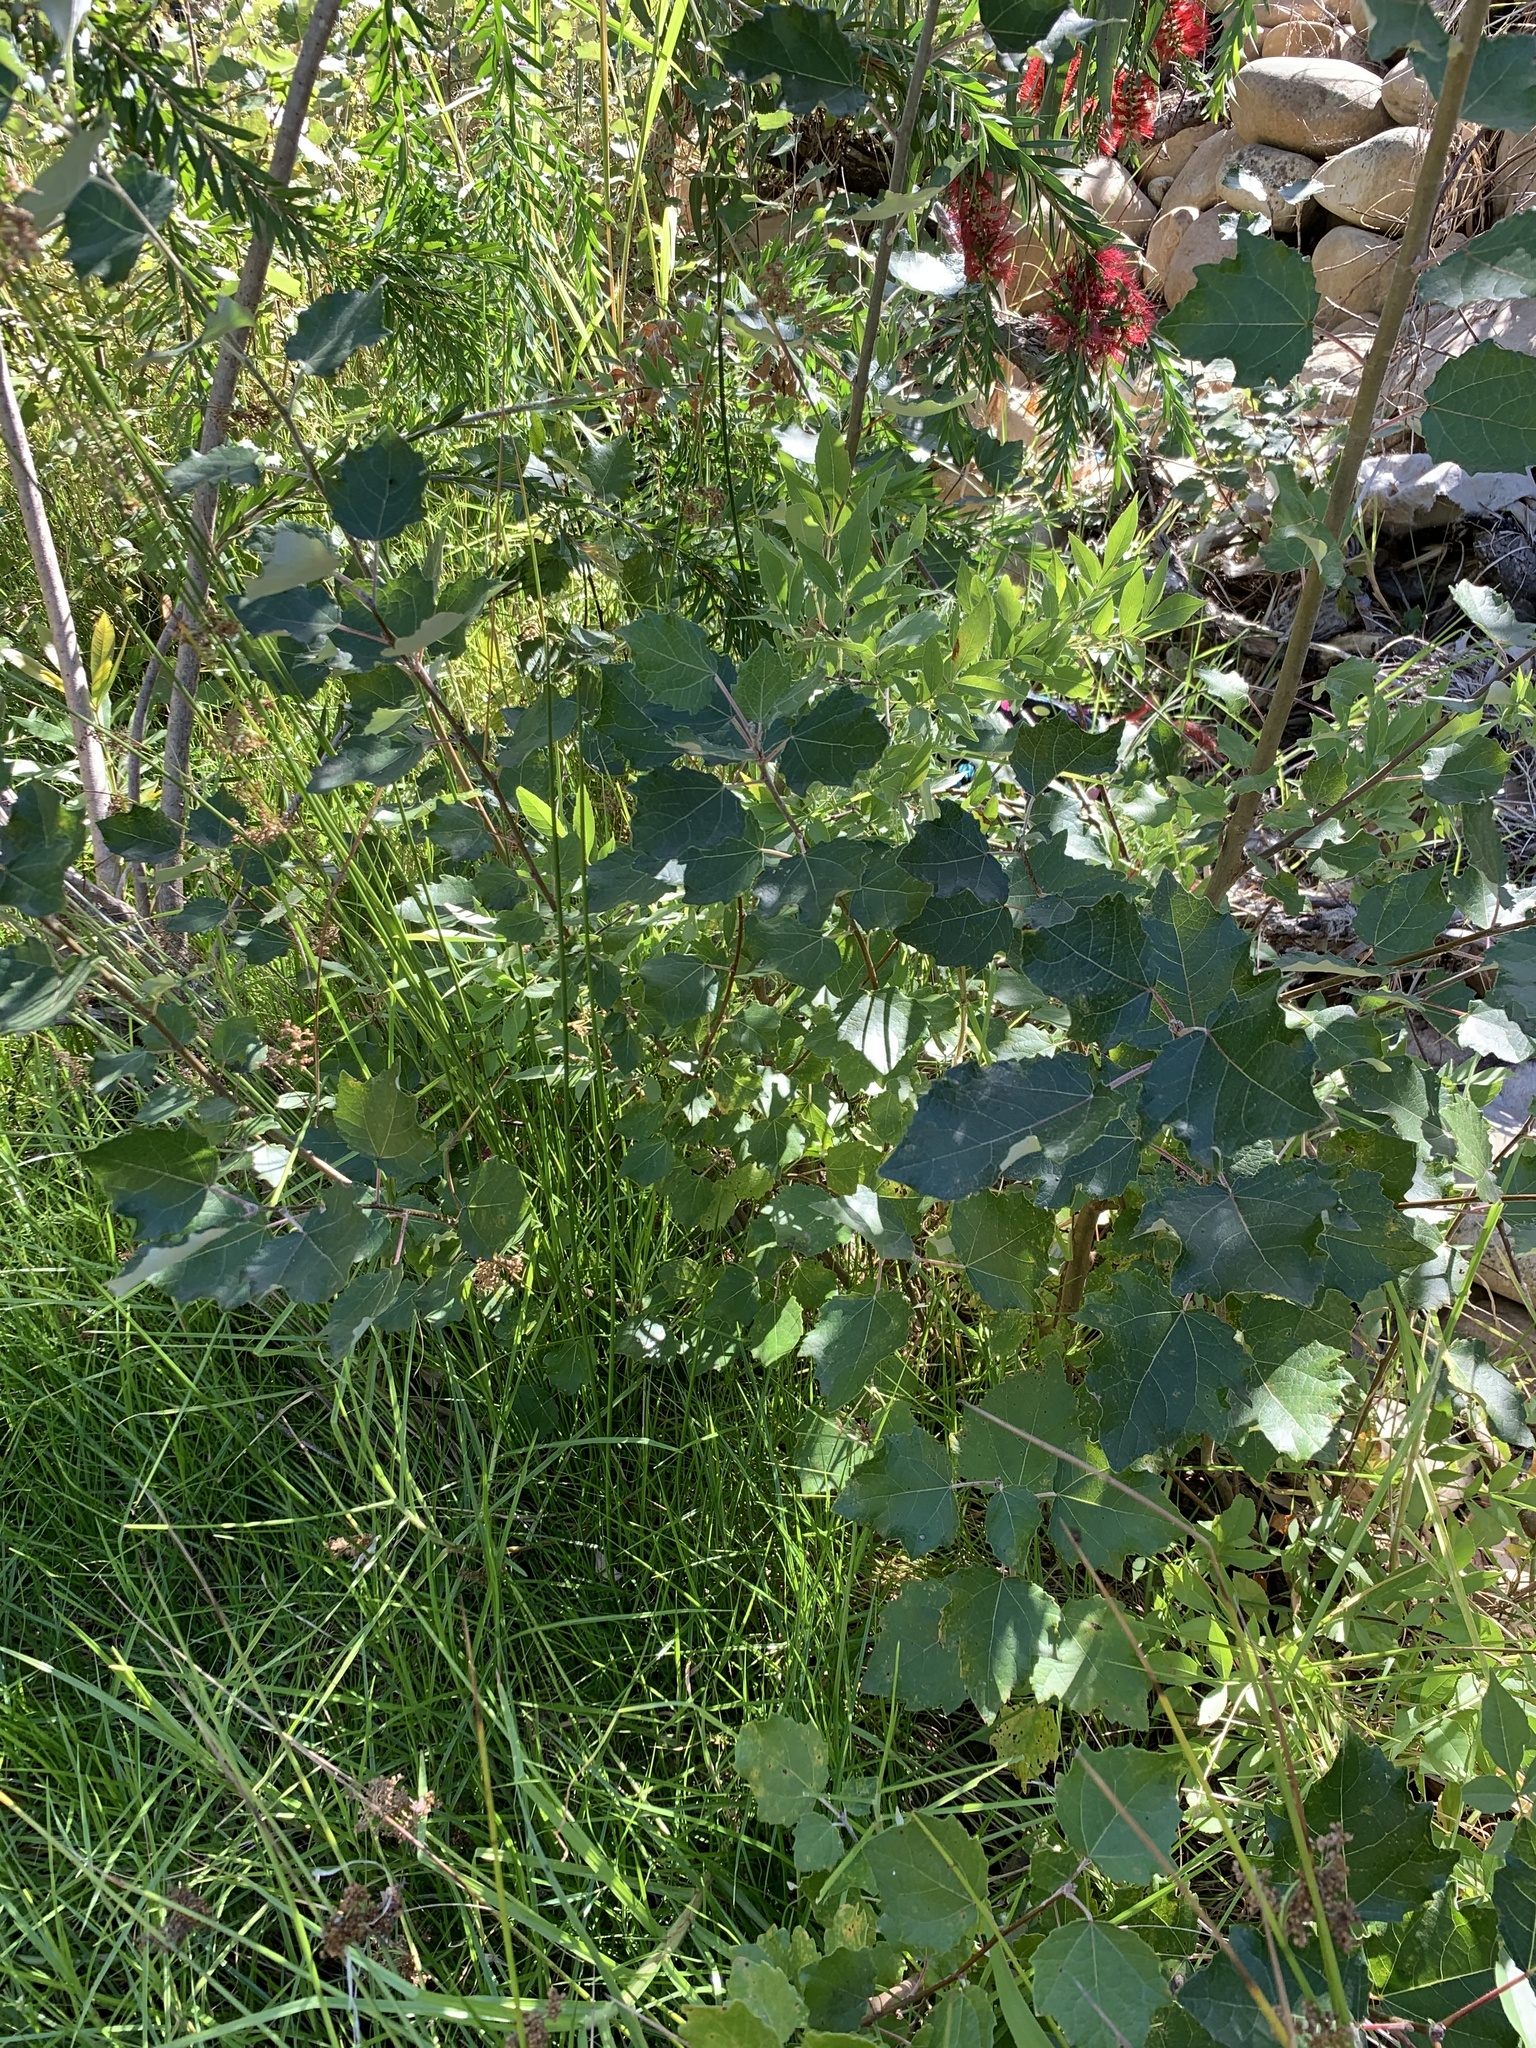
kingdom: Plantae
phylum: Tracheophyta
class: Magnoliopsida
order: Malpighiales
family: Salicaceae
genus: Populus
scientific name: Populus canescens
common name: Gray poplar
